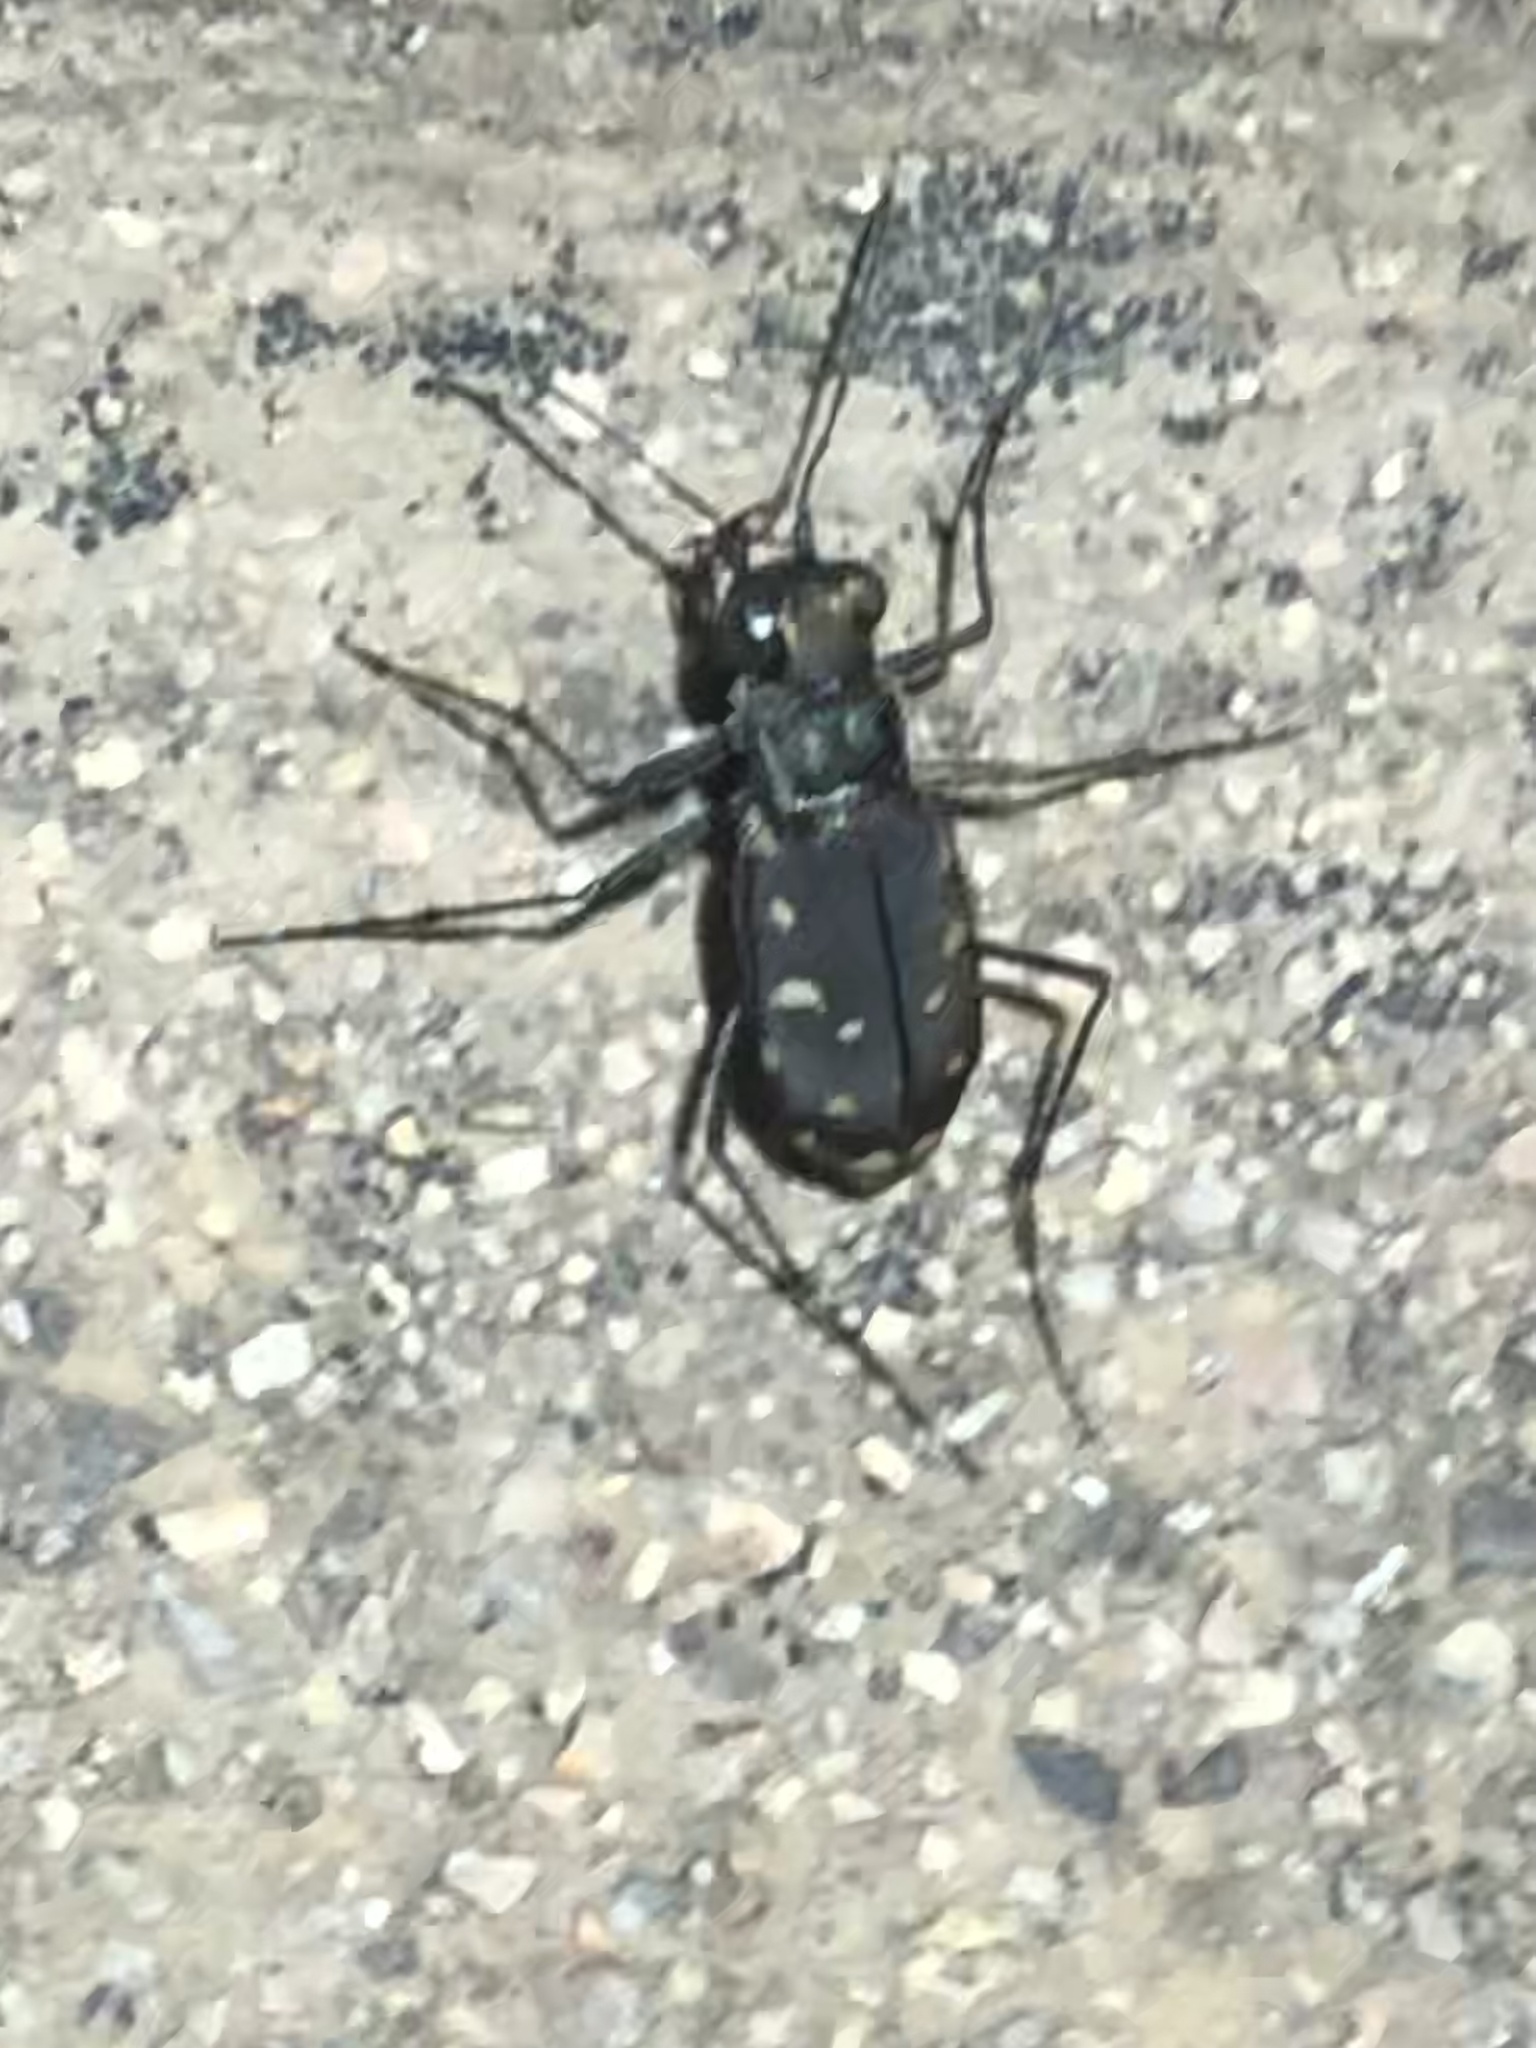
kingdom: Animalia
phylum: Arthropoda
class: Insecta
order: Coleoptera
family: Carabidae
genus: Cicindela
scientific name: Cicindela sedecimpunctata
